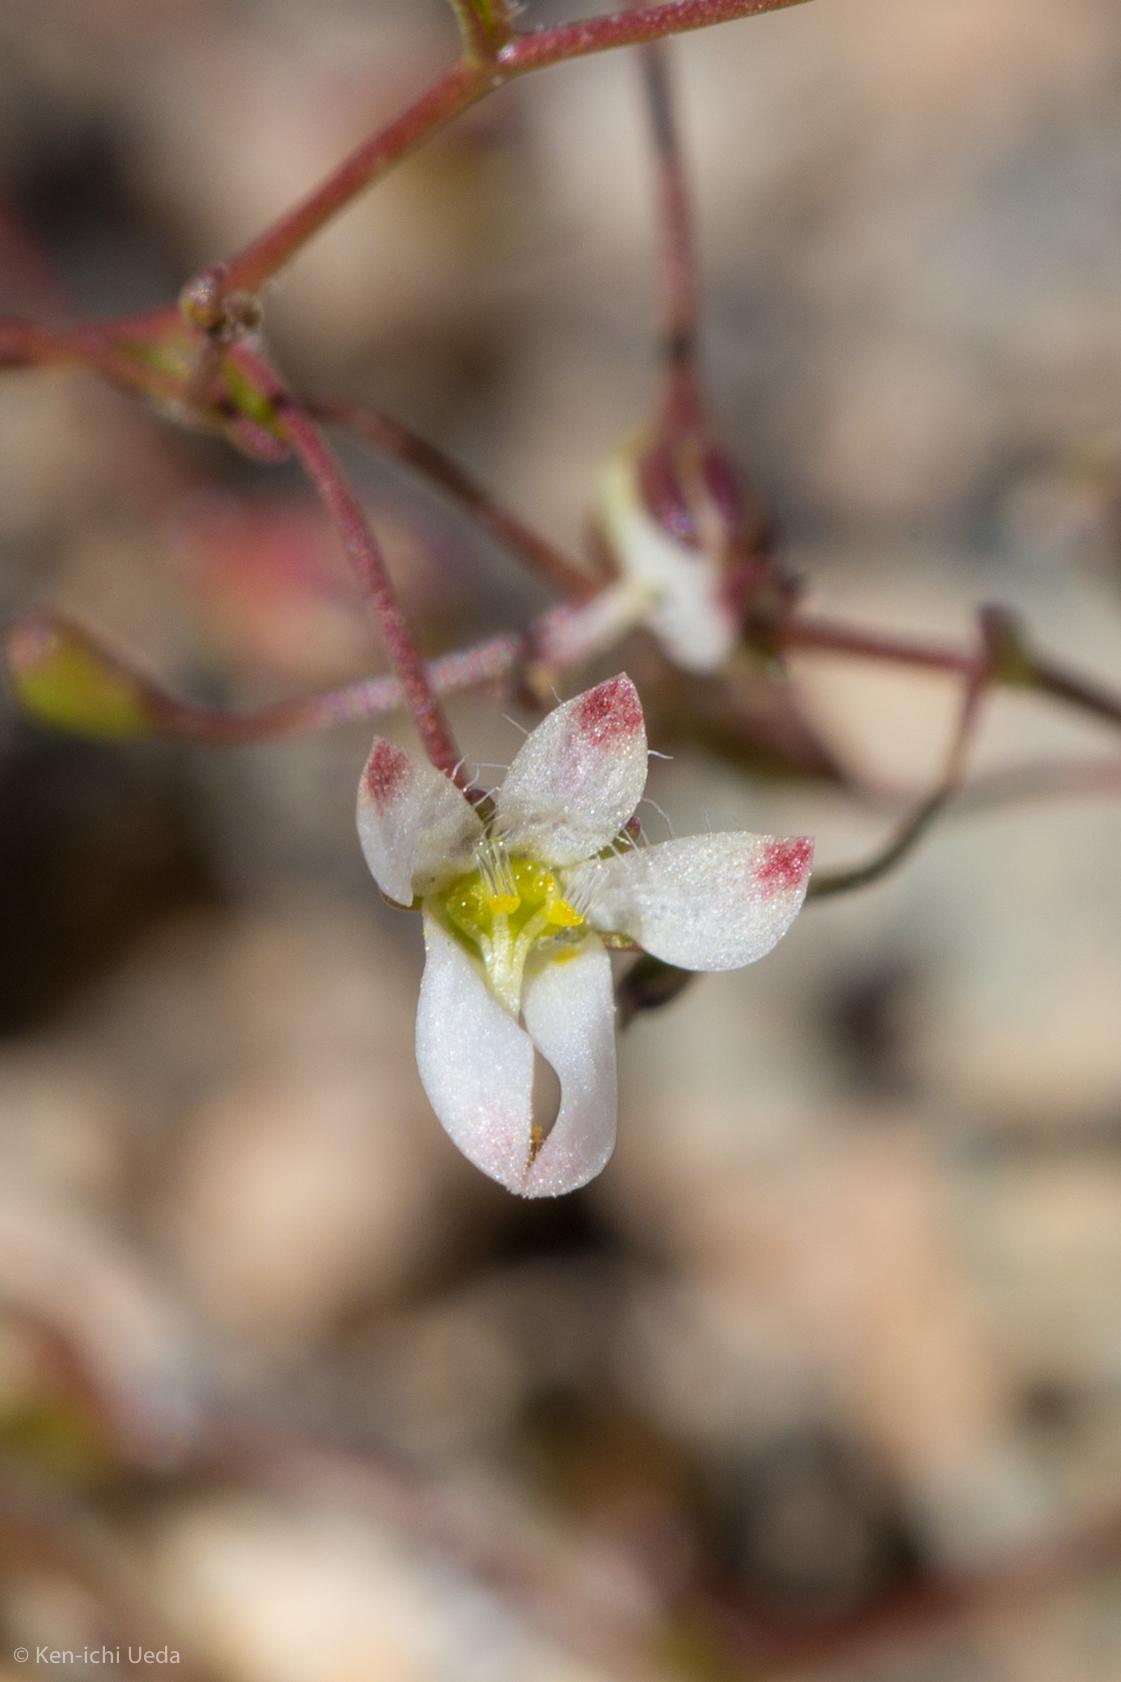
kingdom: Plantae
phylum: Tracheophyta
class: Magnoliopsida
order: Asterales
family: Campanulaceae
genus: Nemacladus
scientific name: Nemacladus orientalis
